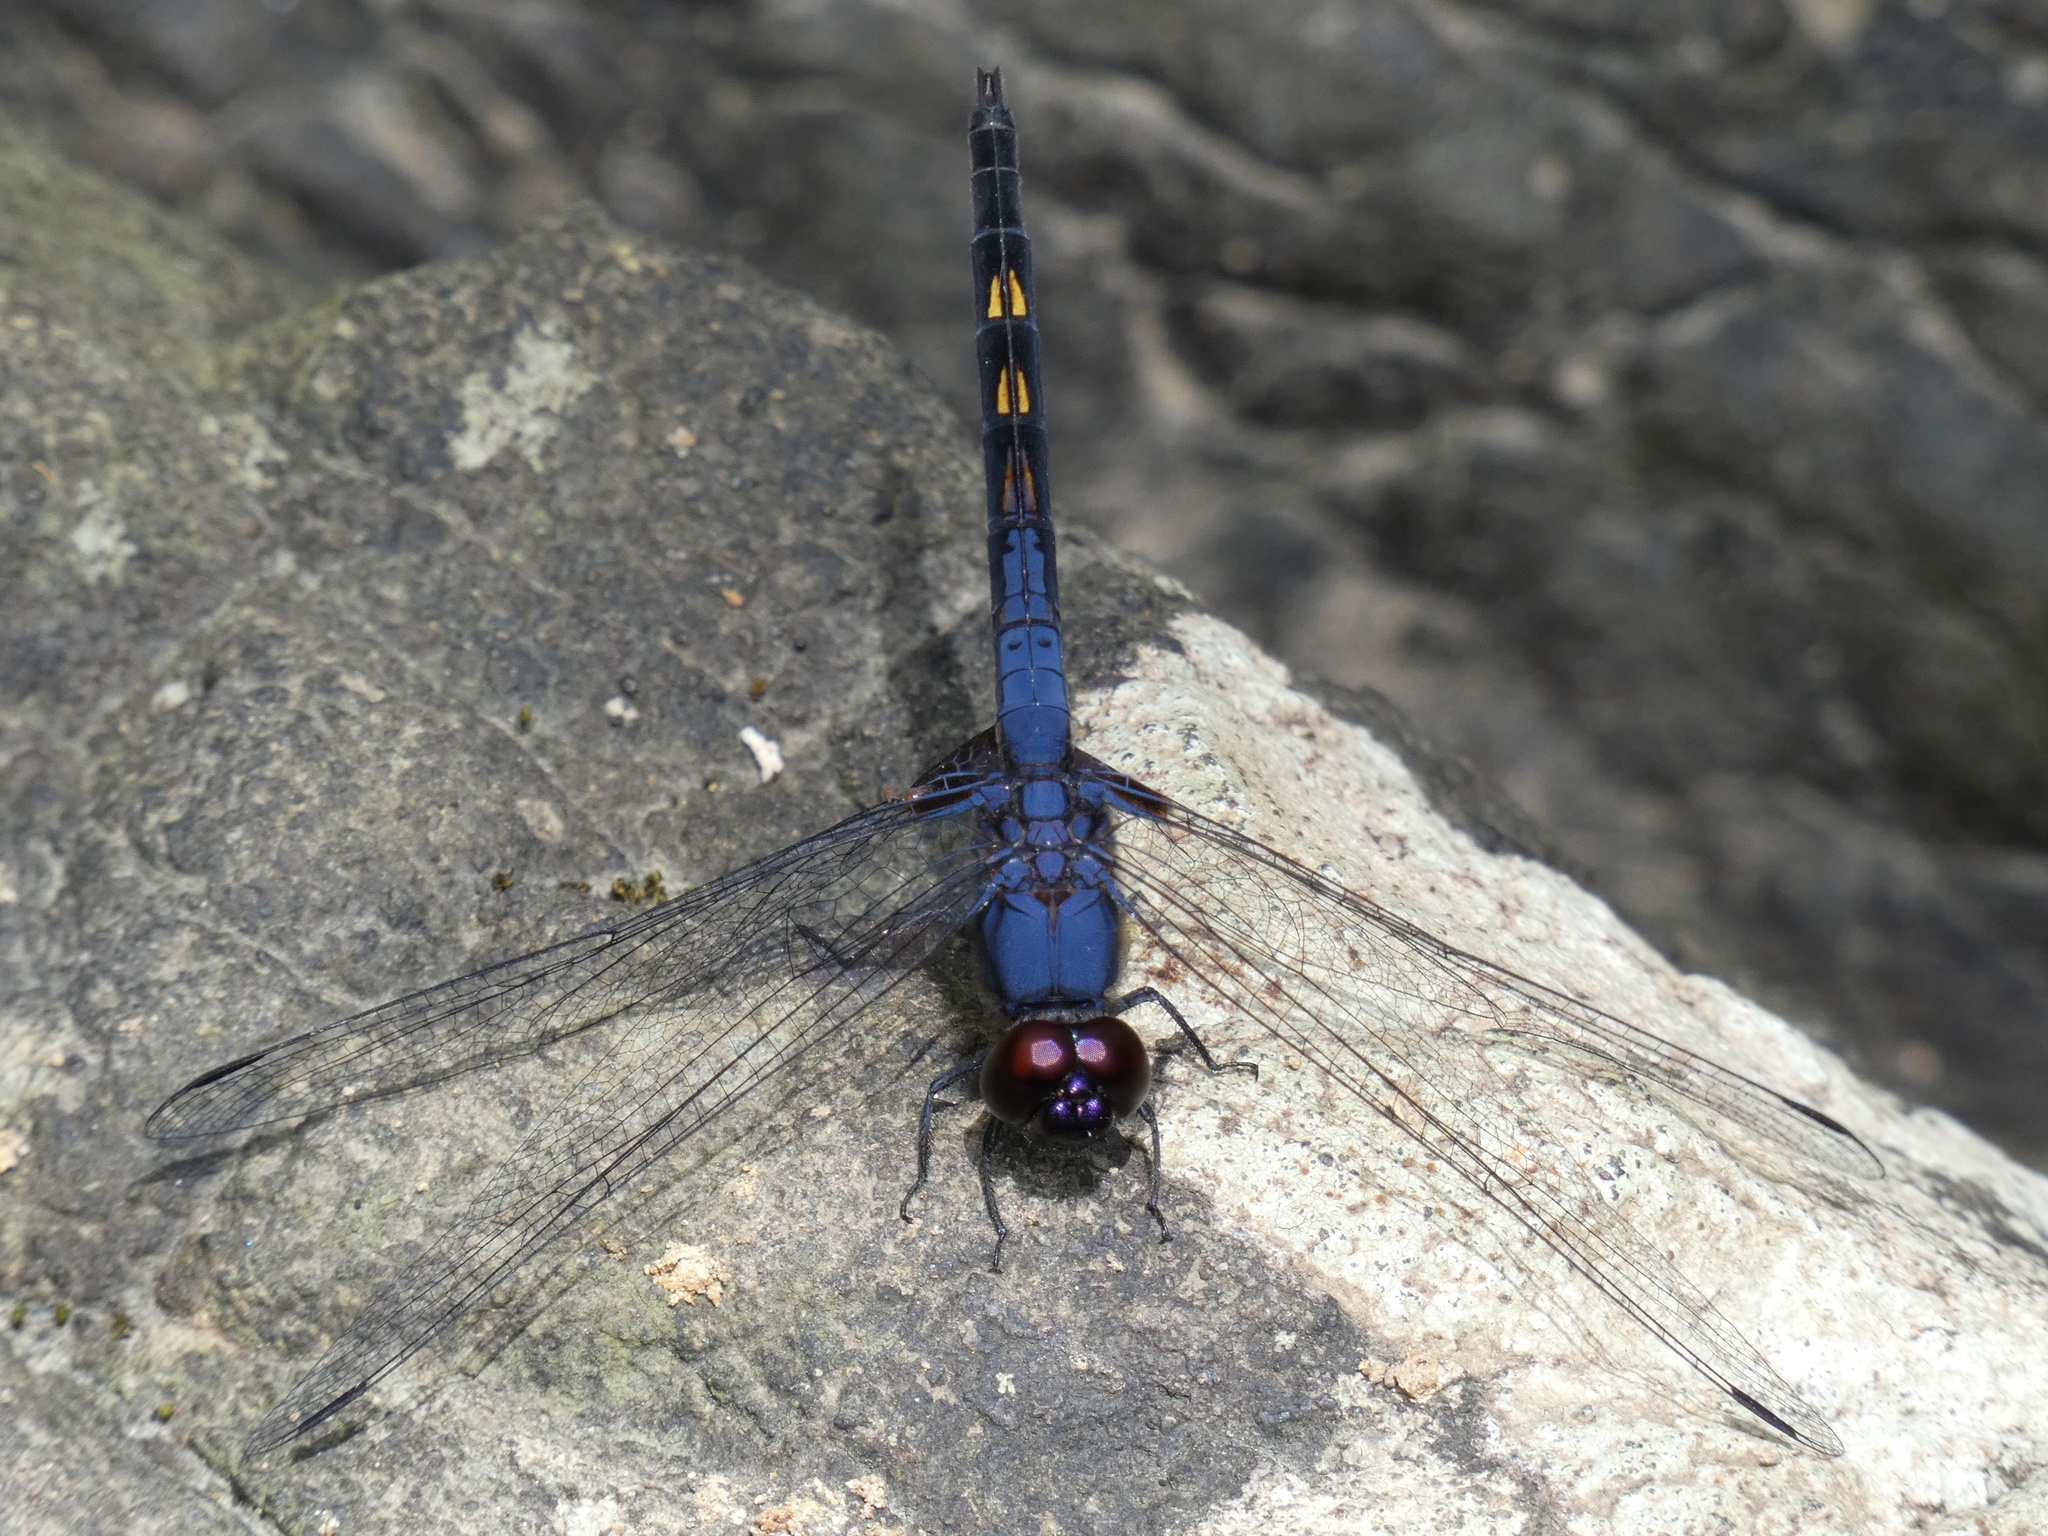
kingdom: Animalia
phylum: Arthropoda
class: Insecta
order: Odonata
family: Libellulidae
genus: Trithemis
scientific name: Trithemis festiva
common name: Indigo dropwing
